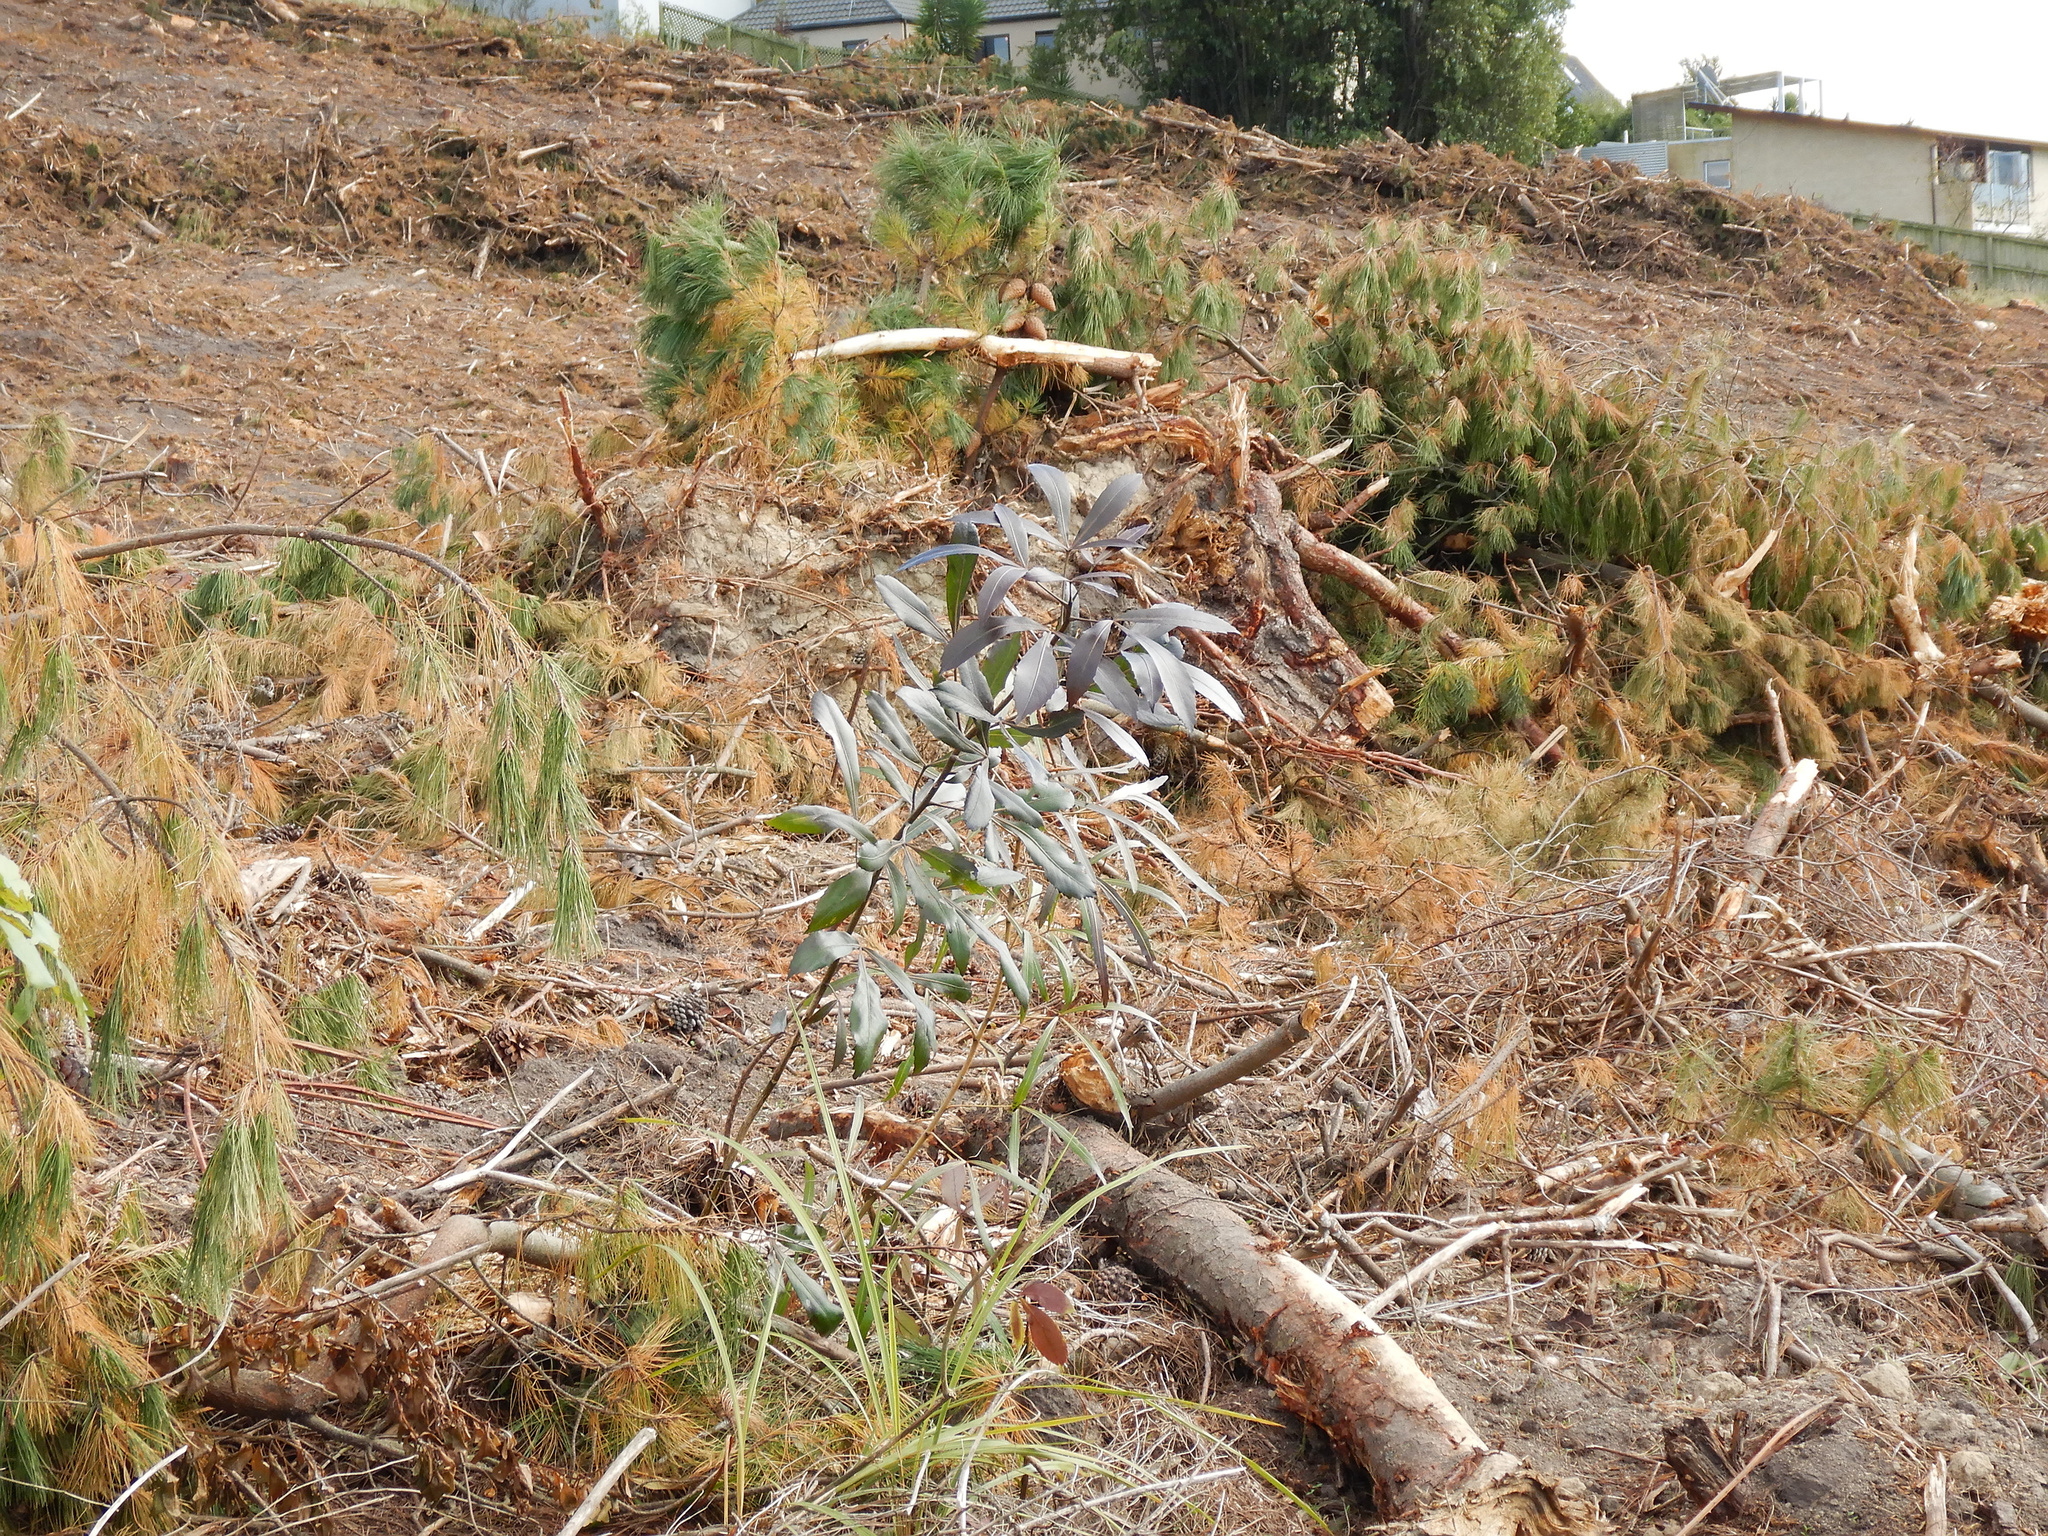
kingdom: Plantae
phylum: Tracheophyta
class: Magnoliopsida
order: Apiales
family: Araliaceae
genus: Pseudopanax
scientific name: Pseudopanax
